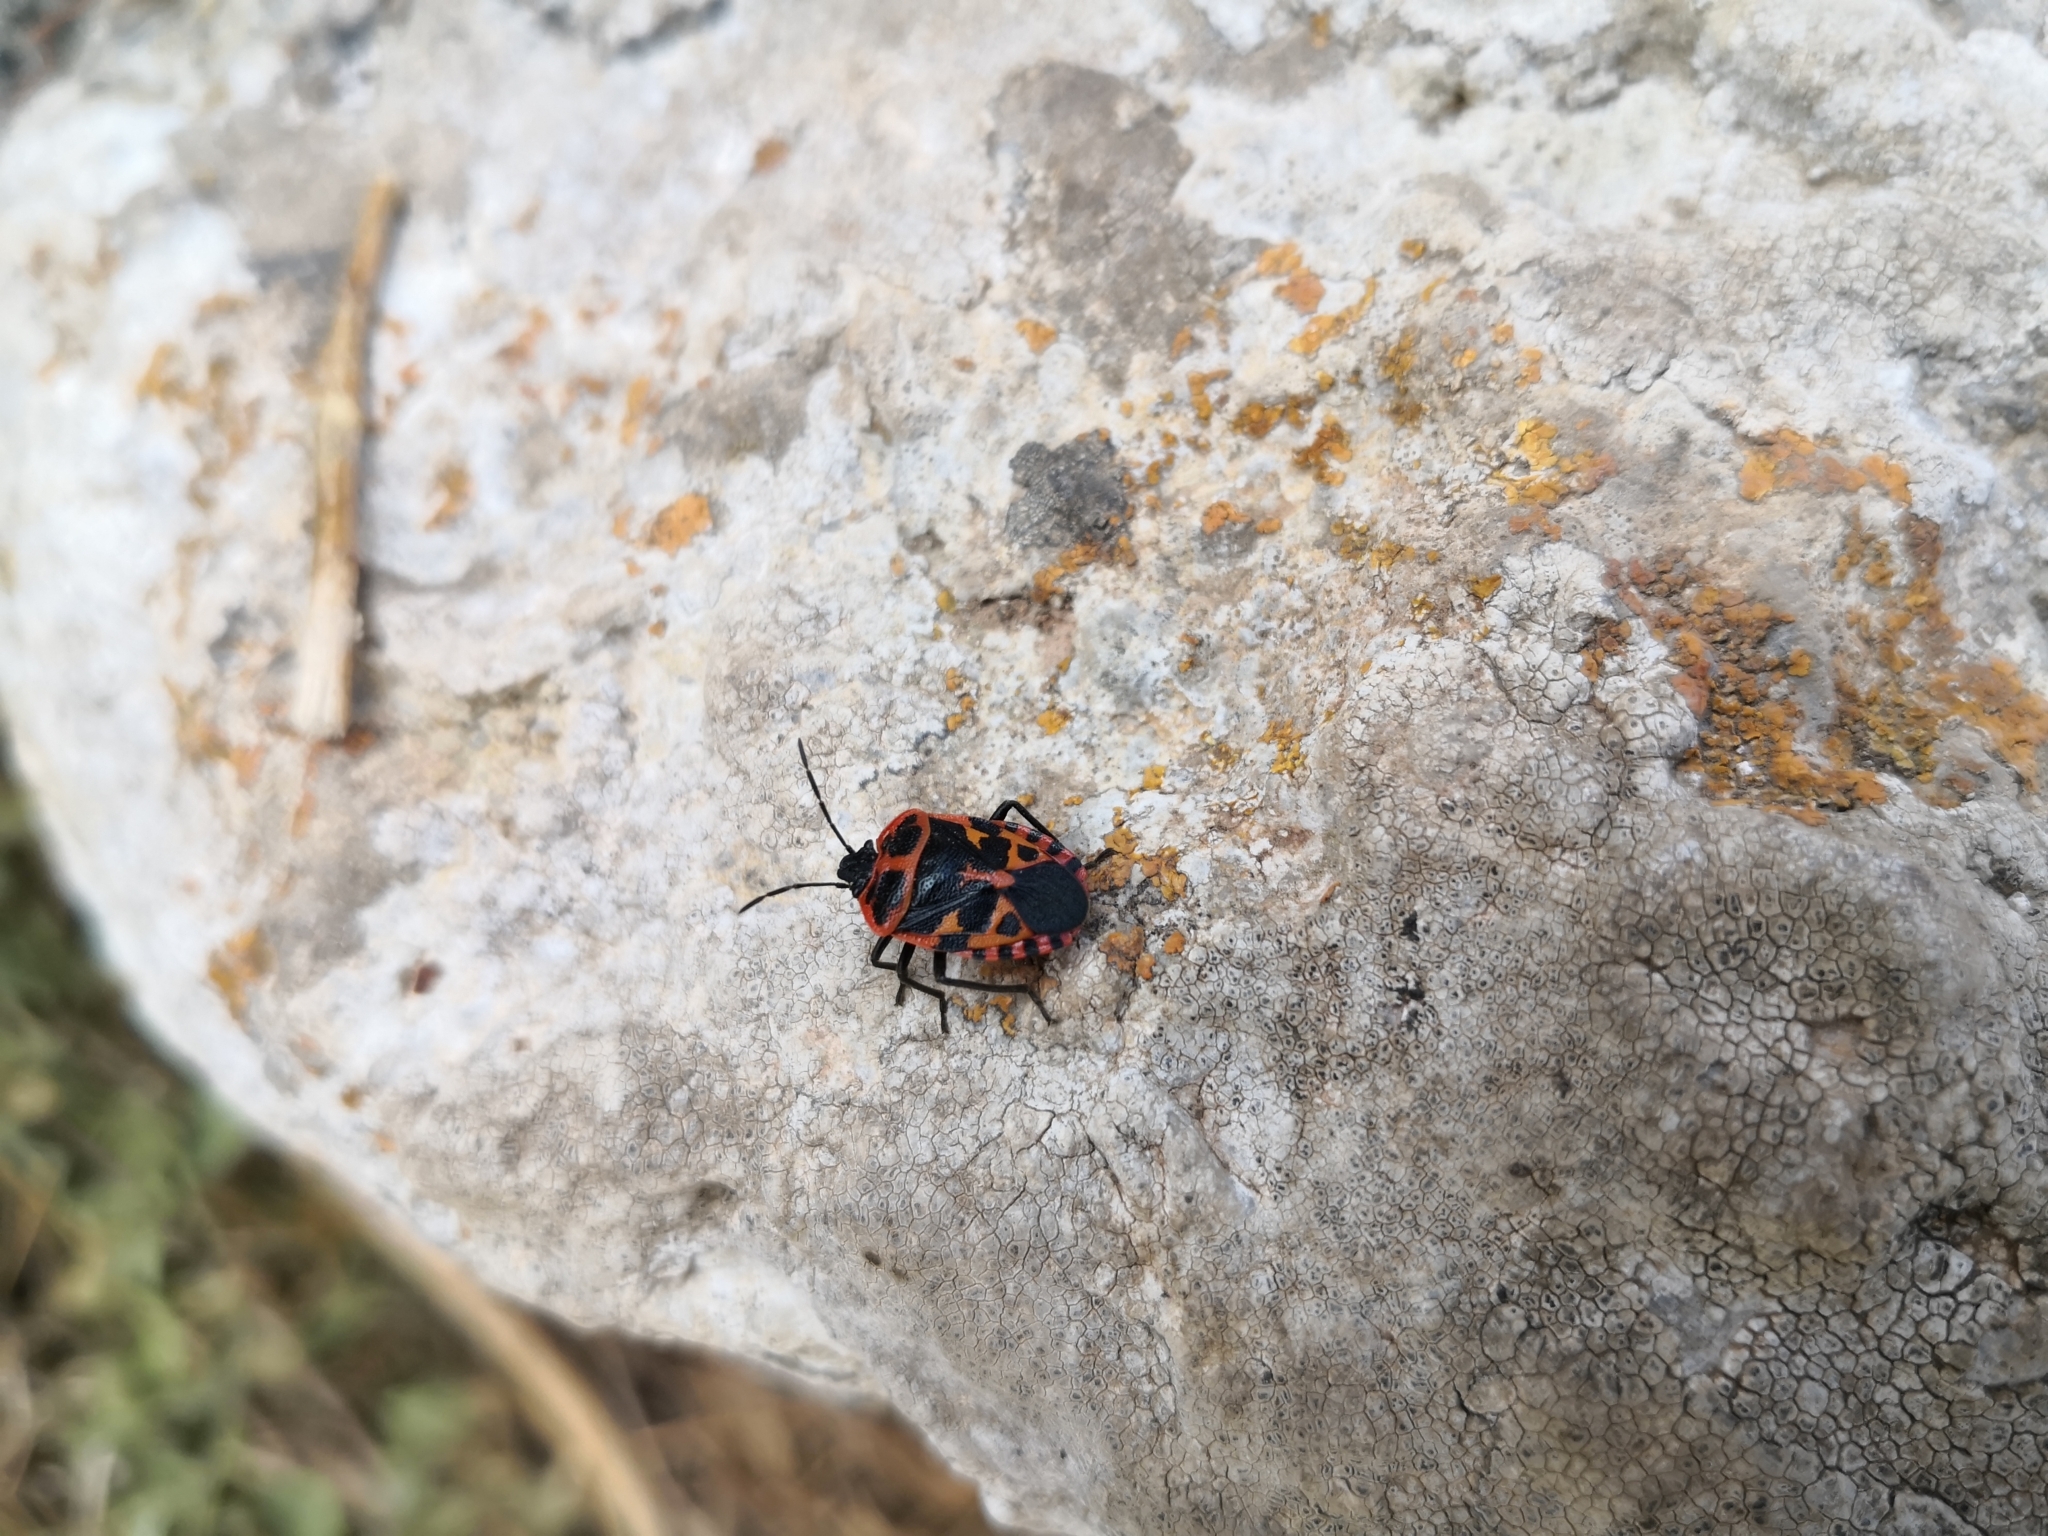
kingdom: Animalia
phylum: Arthropoda
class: Insecta
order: Hemiptera
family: Pentatomidae
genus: Eurydema
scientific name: Eurydema eckerleini
